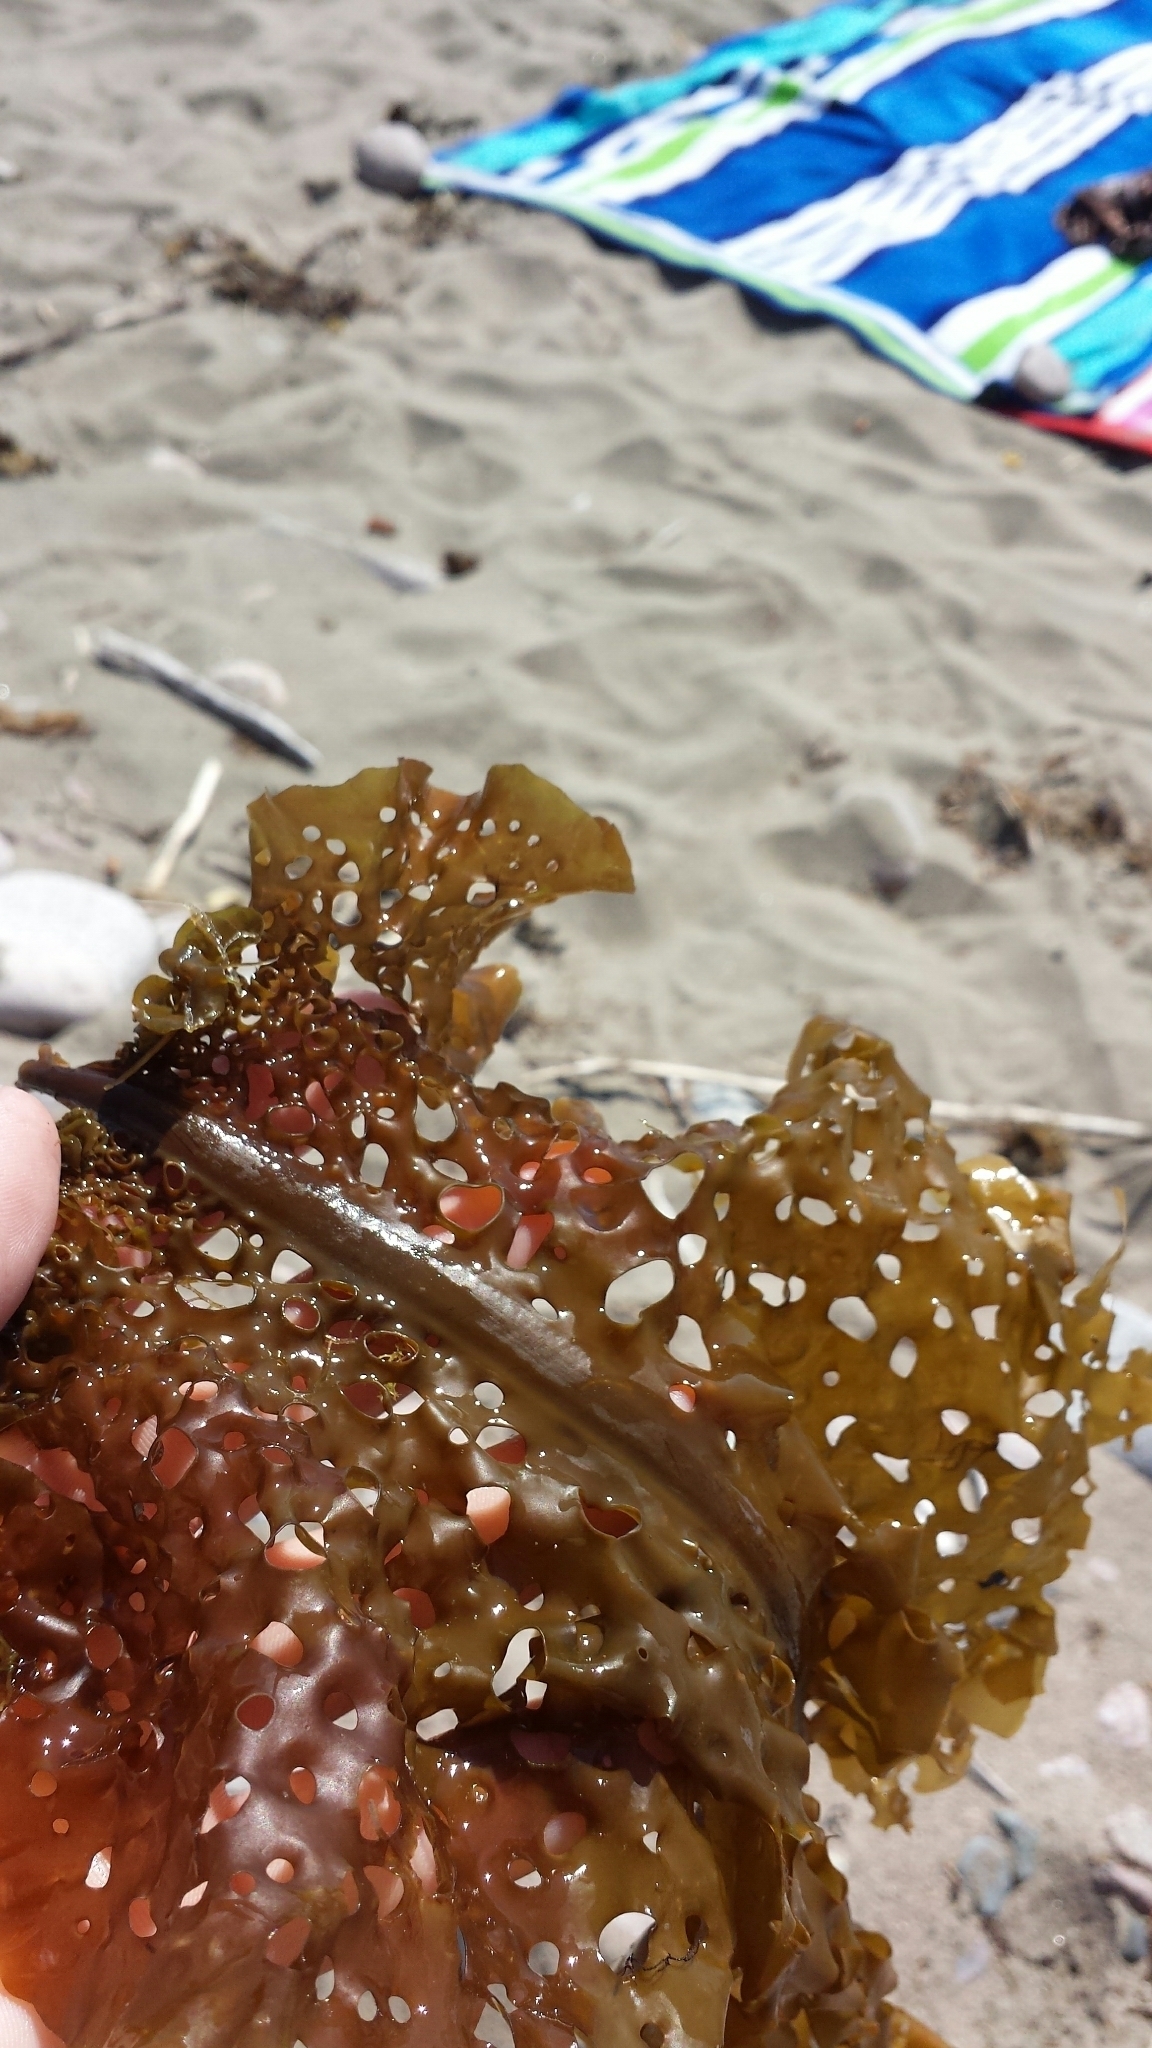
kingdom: Chromista
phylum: Ochrophyta
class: Phaeophyceae
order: Laminariales
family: Costariaceae
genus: Agarum
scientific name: Agarum clathratum
